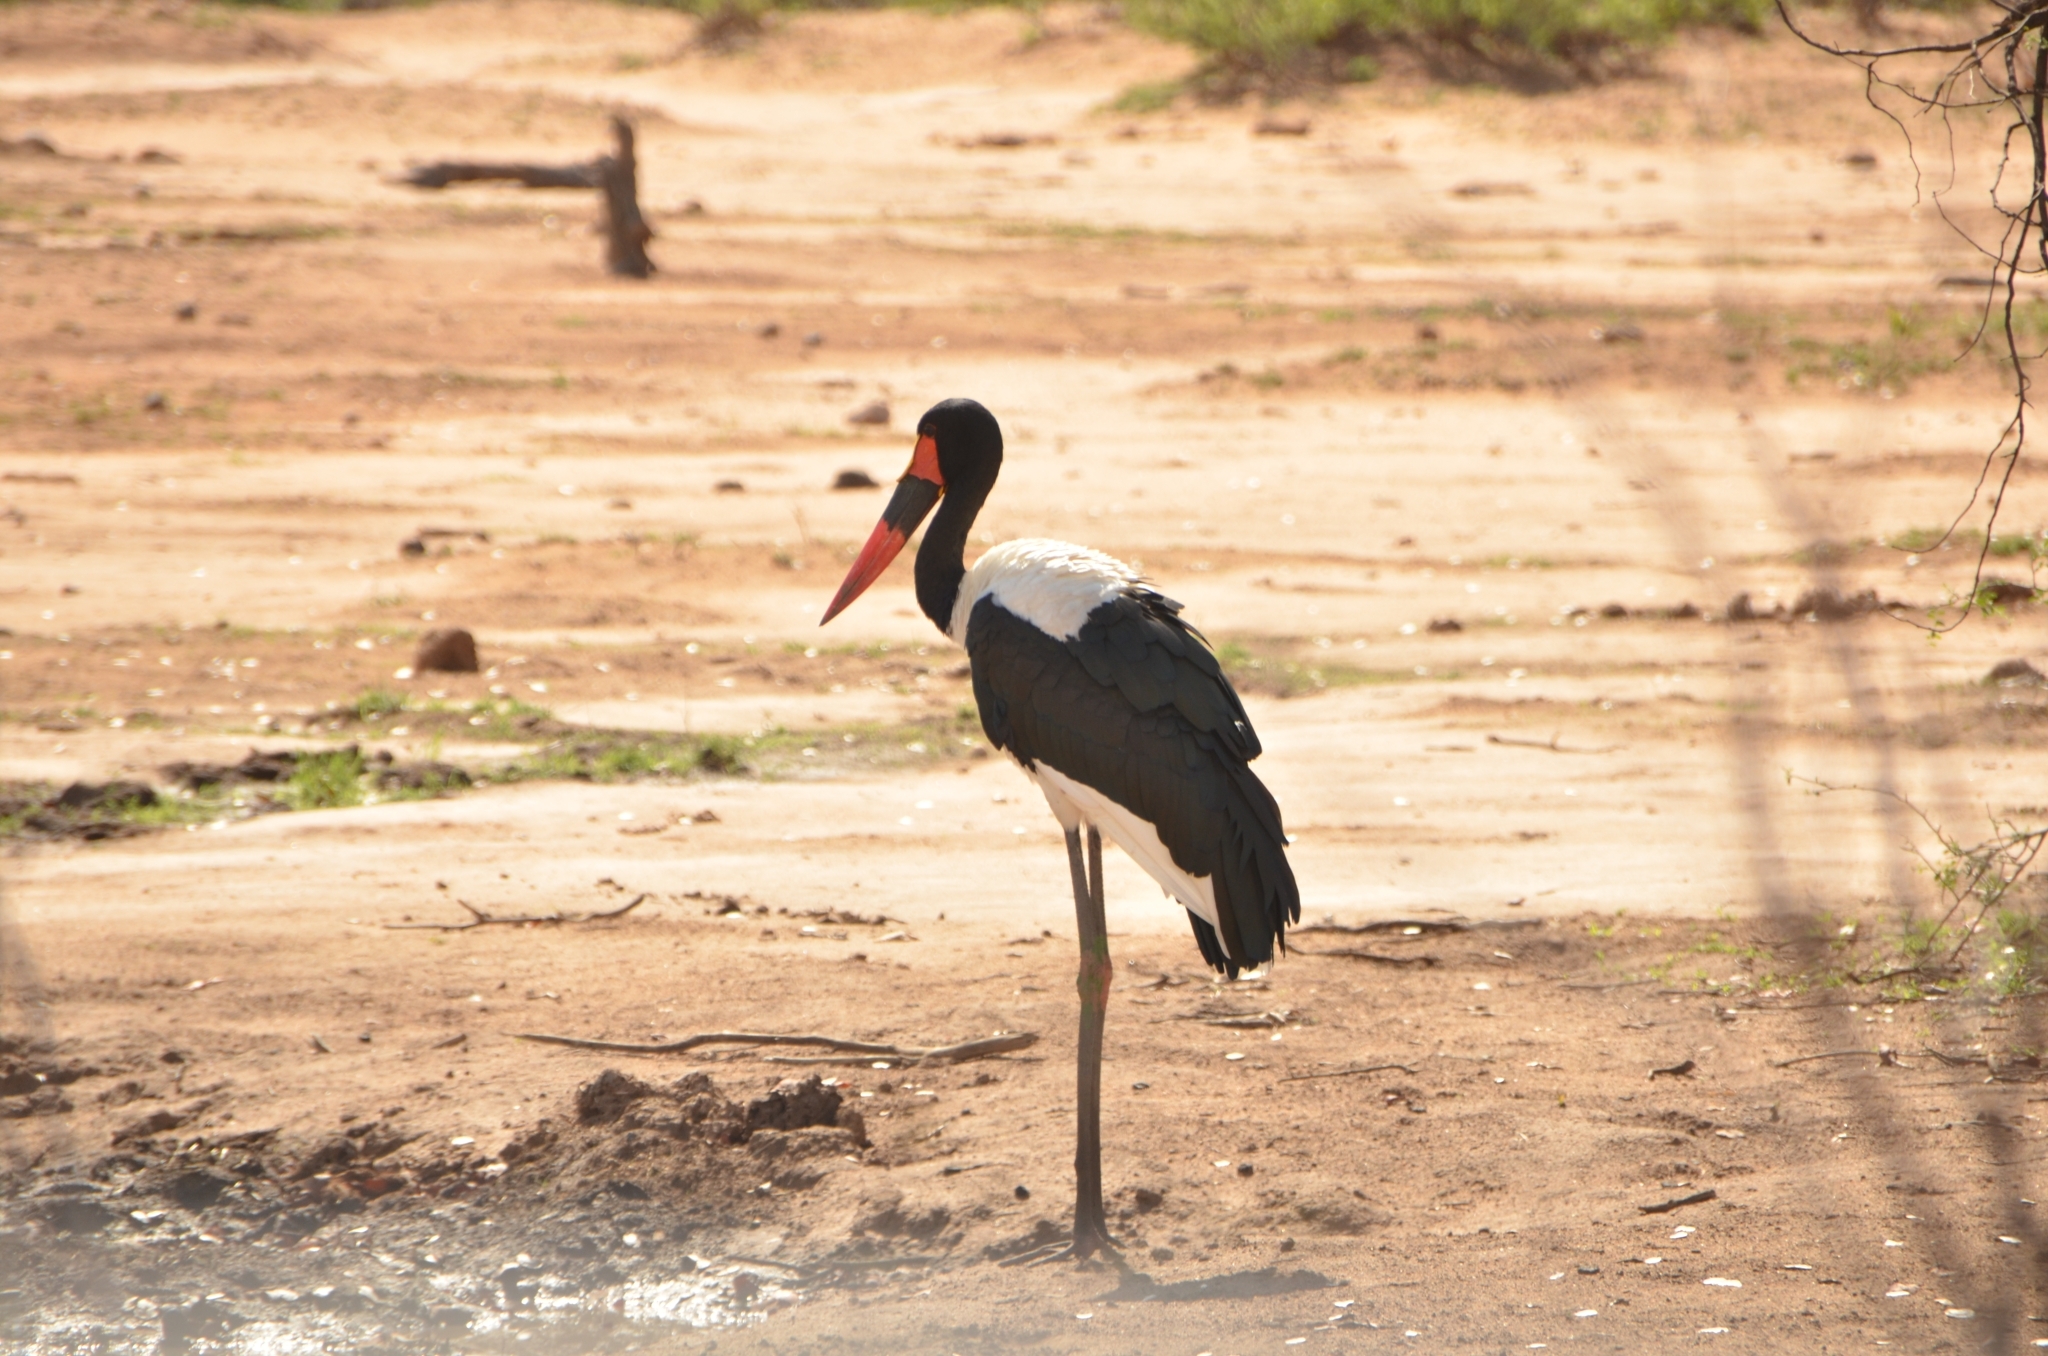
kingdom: Animalia
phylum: Chordata
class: Aves
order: Ciconiiformes
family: Ciconiidae
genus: Ephippiorhynchus
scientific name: Ephippiorhynchus senegalensis
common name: Saddle-billed stork
